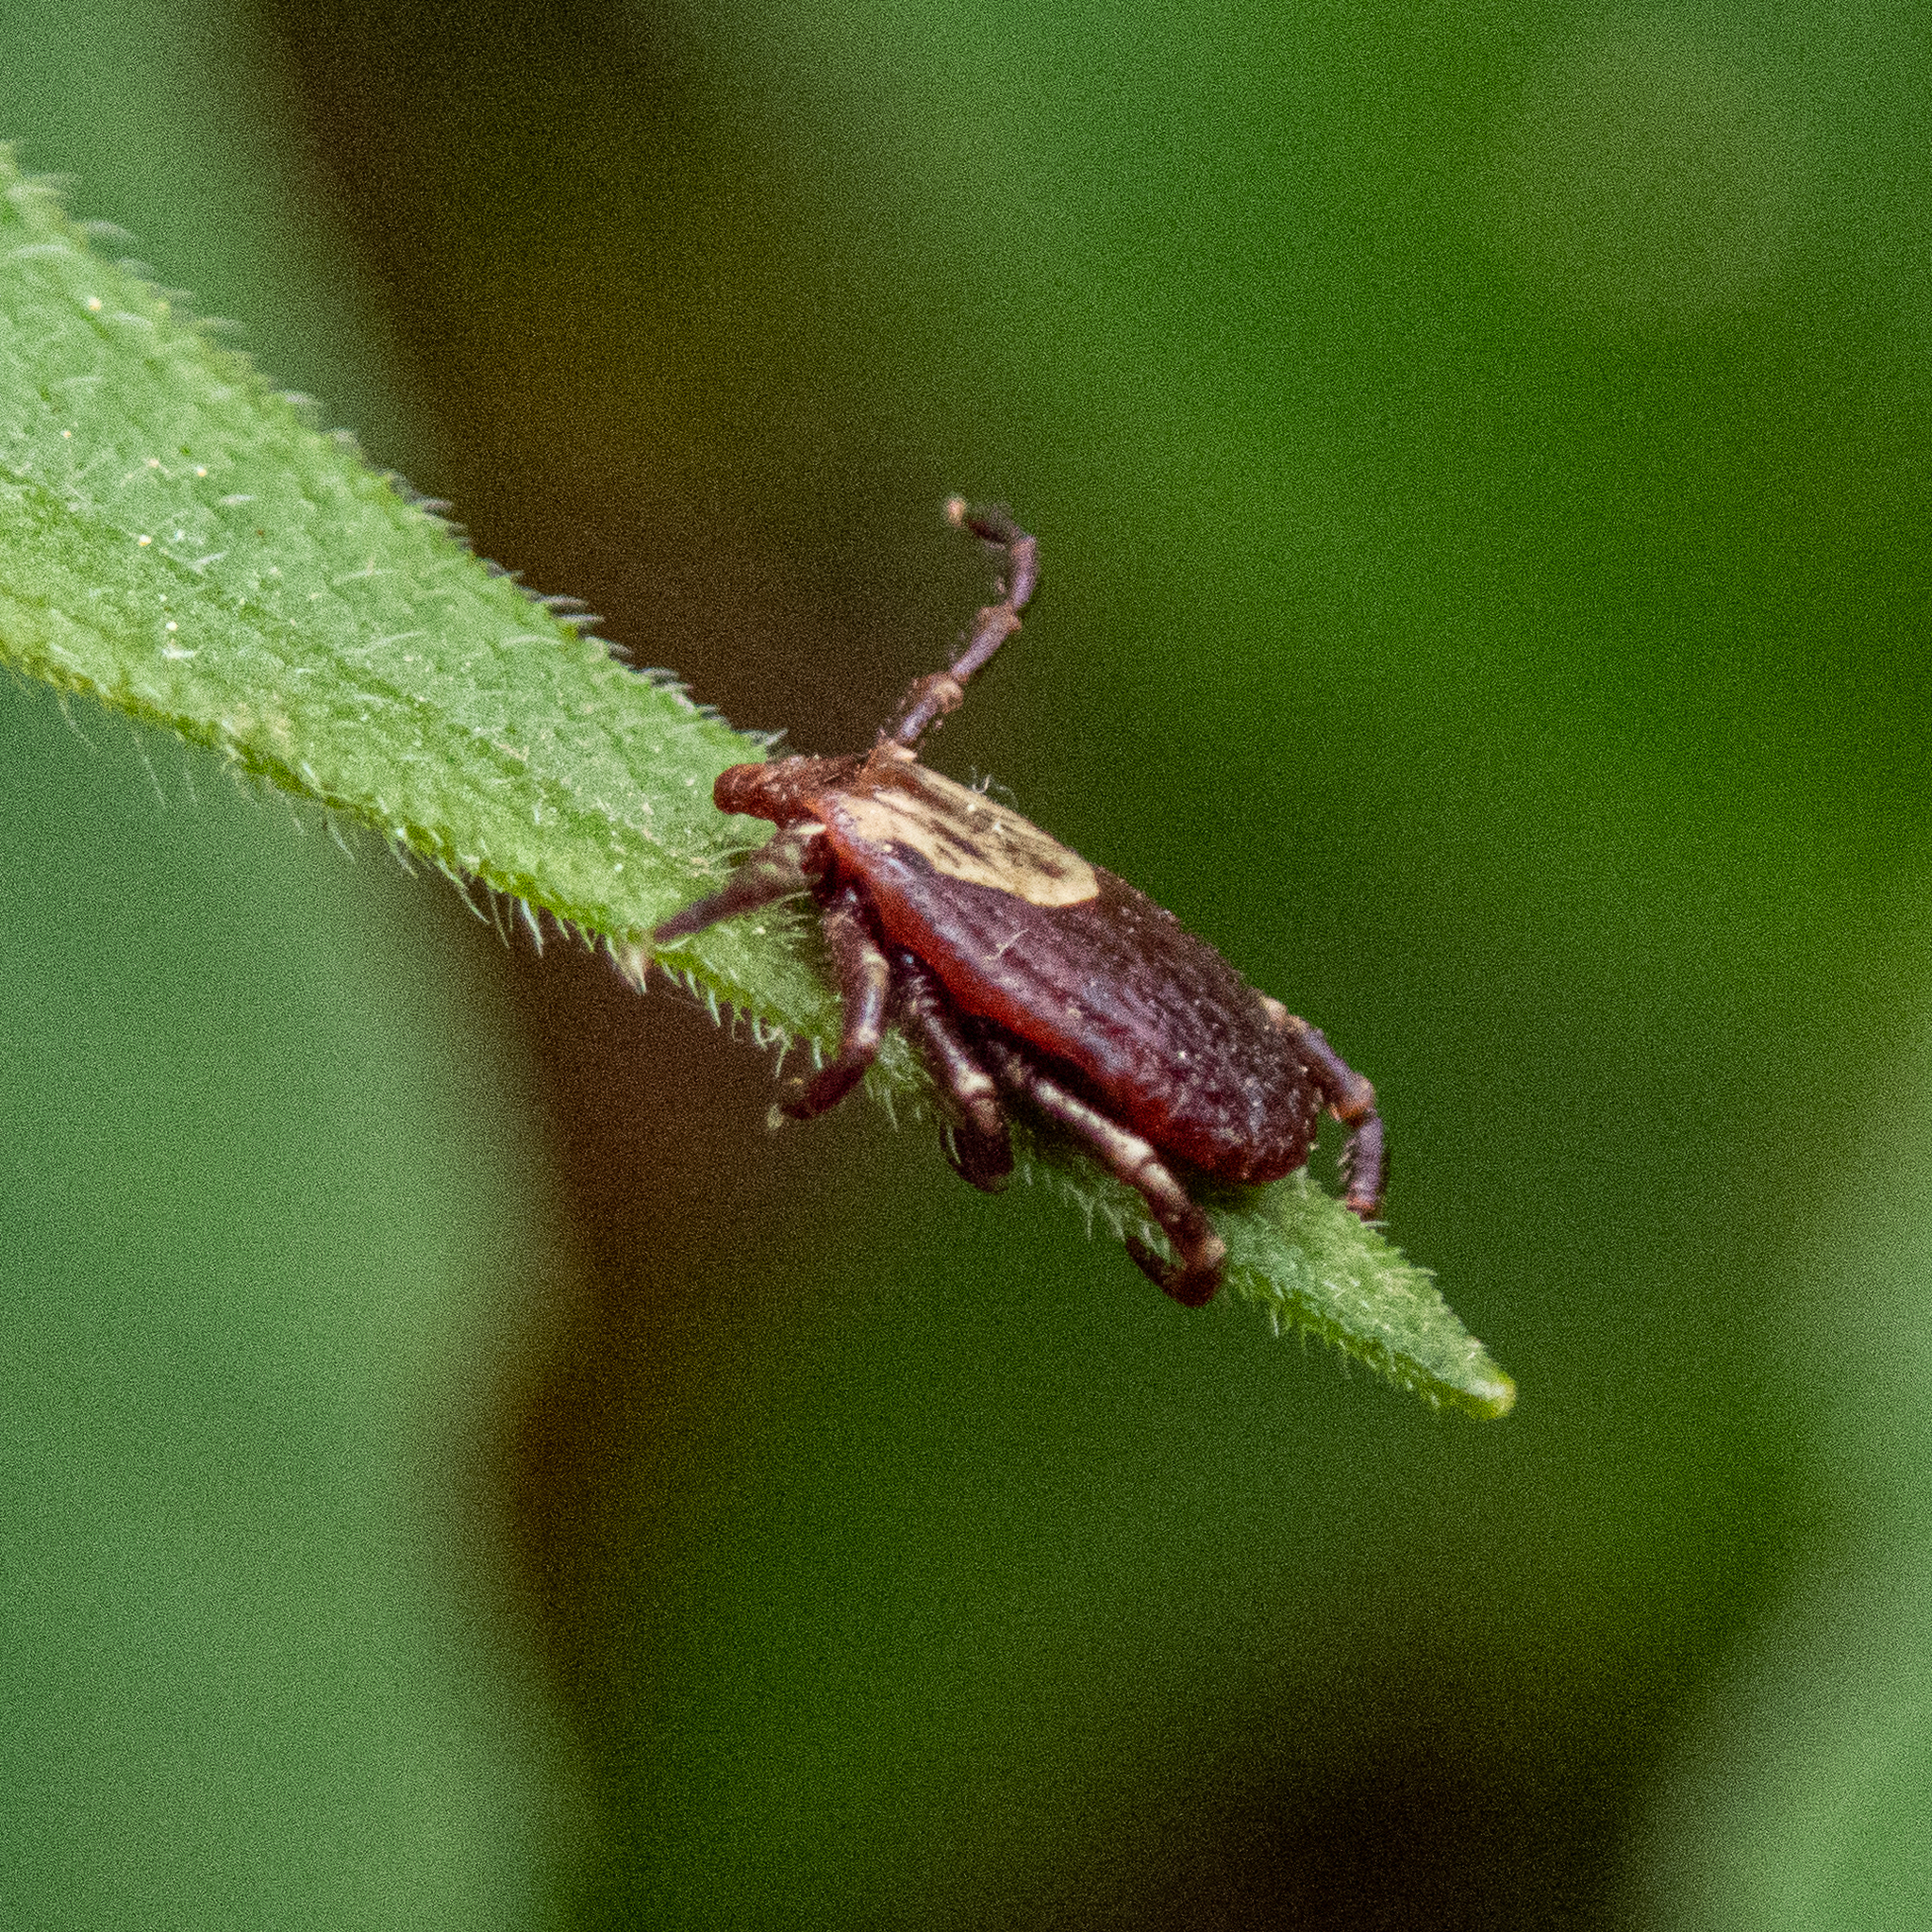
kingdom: Animalia
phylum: Arthropoda
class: Arachnida
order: Ixodida
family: Ixodidae
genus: Dermacentor
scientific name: Dermacentor variabilis
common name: American dog tick
